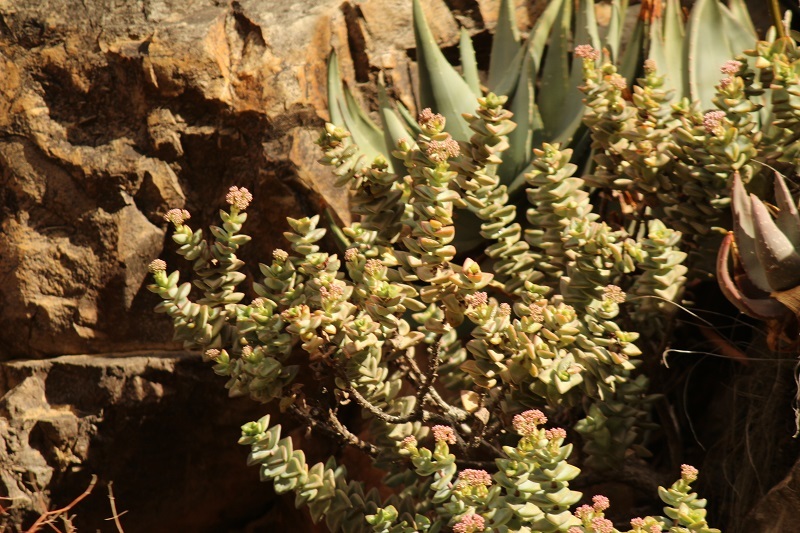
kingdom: Plantae
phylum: Tracheophyta
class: Magnoliopsida
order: Saxifragales
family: Crassulaceae
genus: Crassula
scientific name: Crassula rupestris
